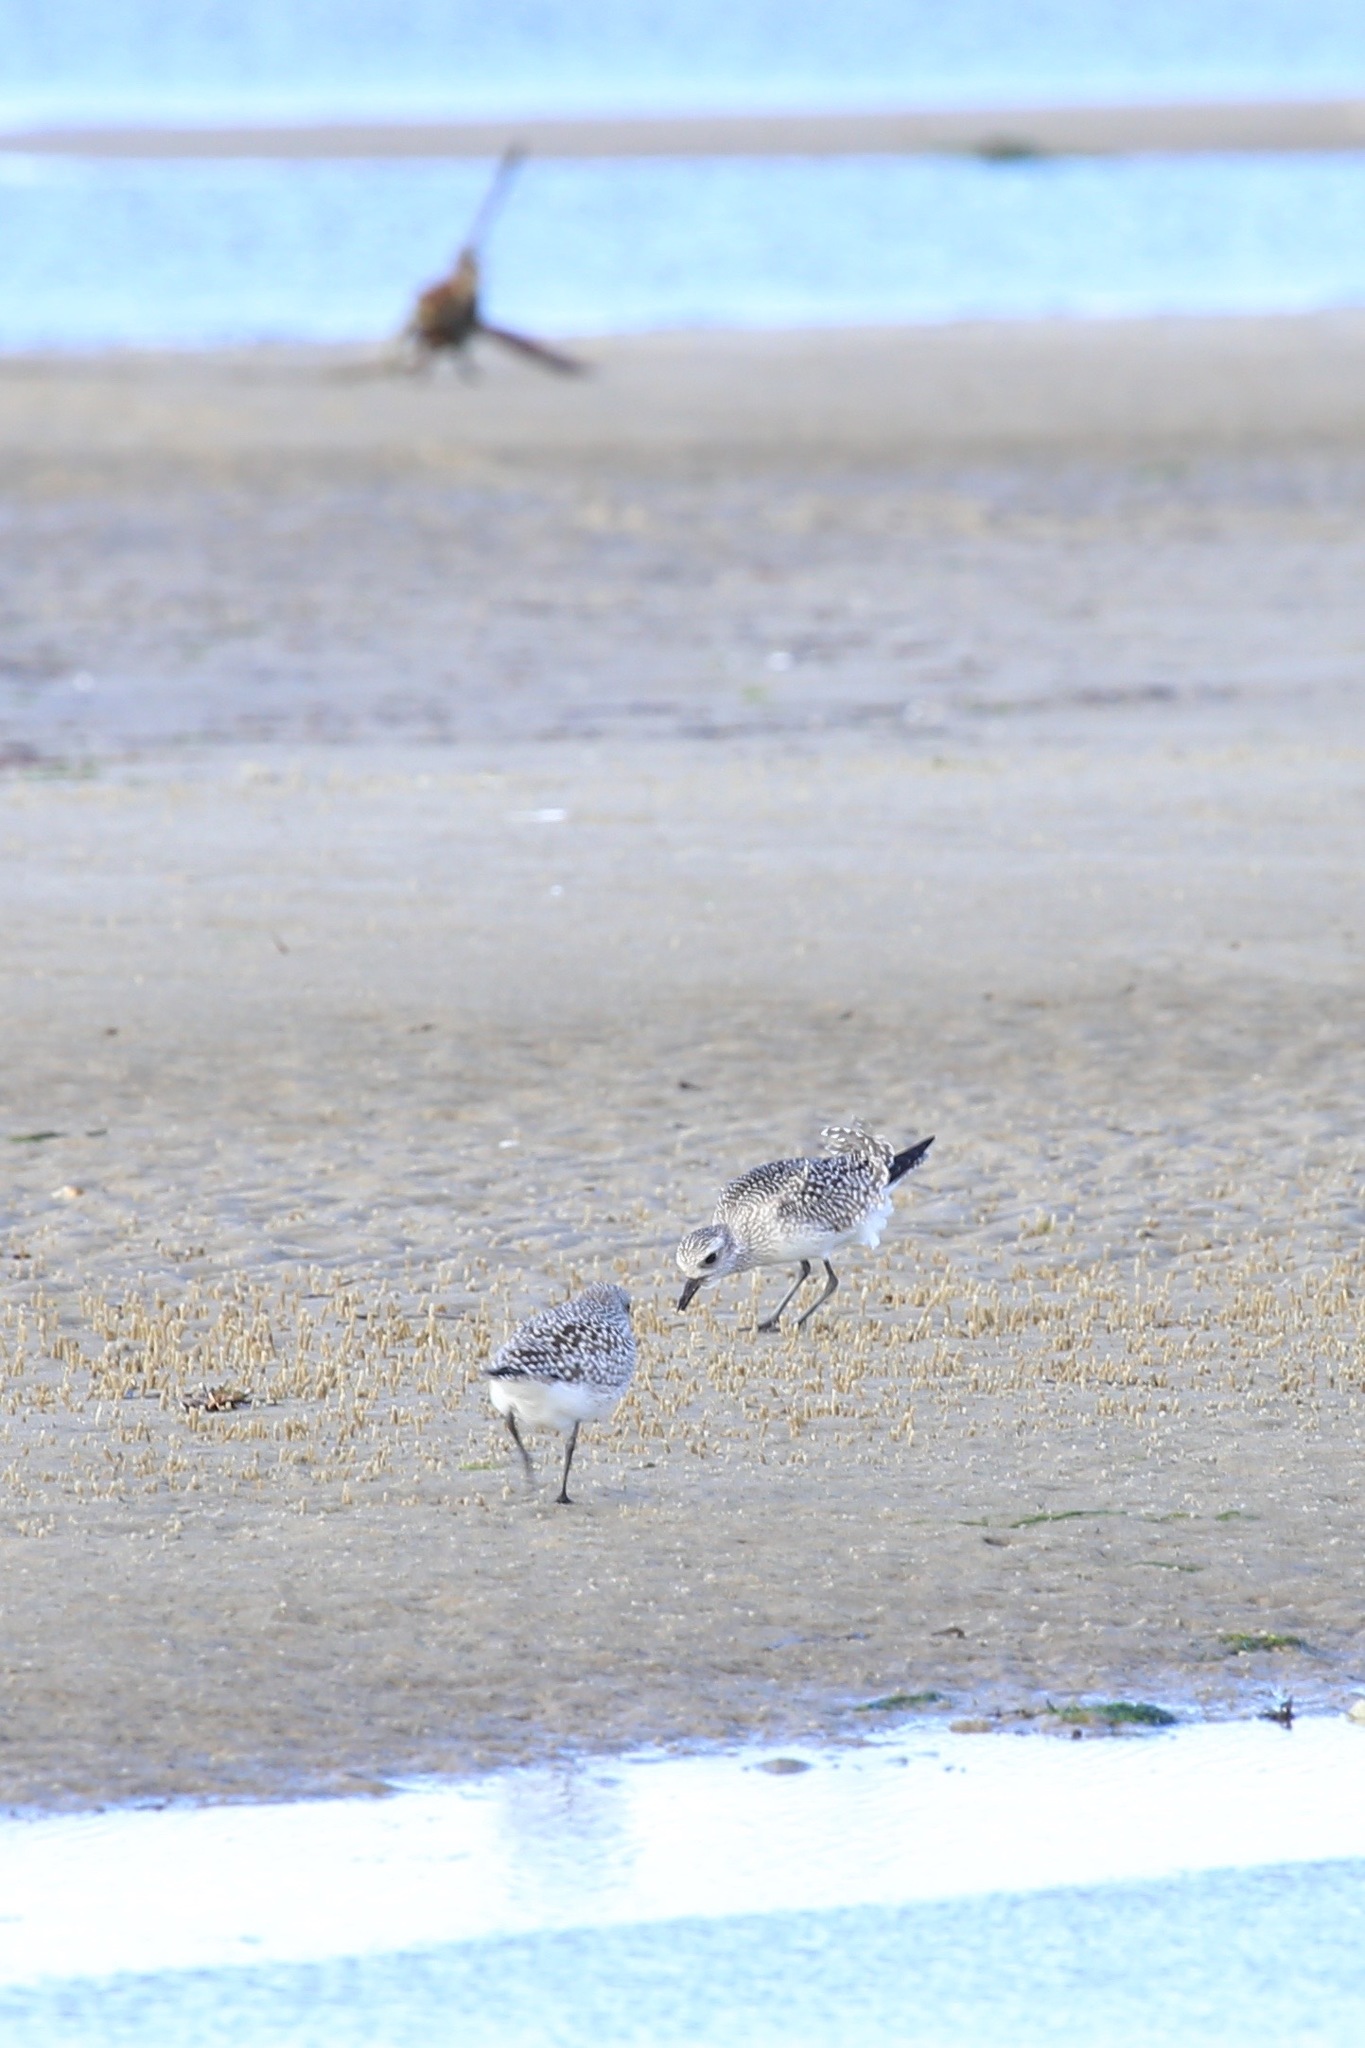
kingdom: Animalia
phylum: Chordata
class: Aves
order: Charadriiformes
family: Charadriidae
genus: Pluvialis
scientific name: Pluvialis squatarola
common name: Grey plover
